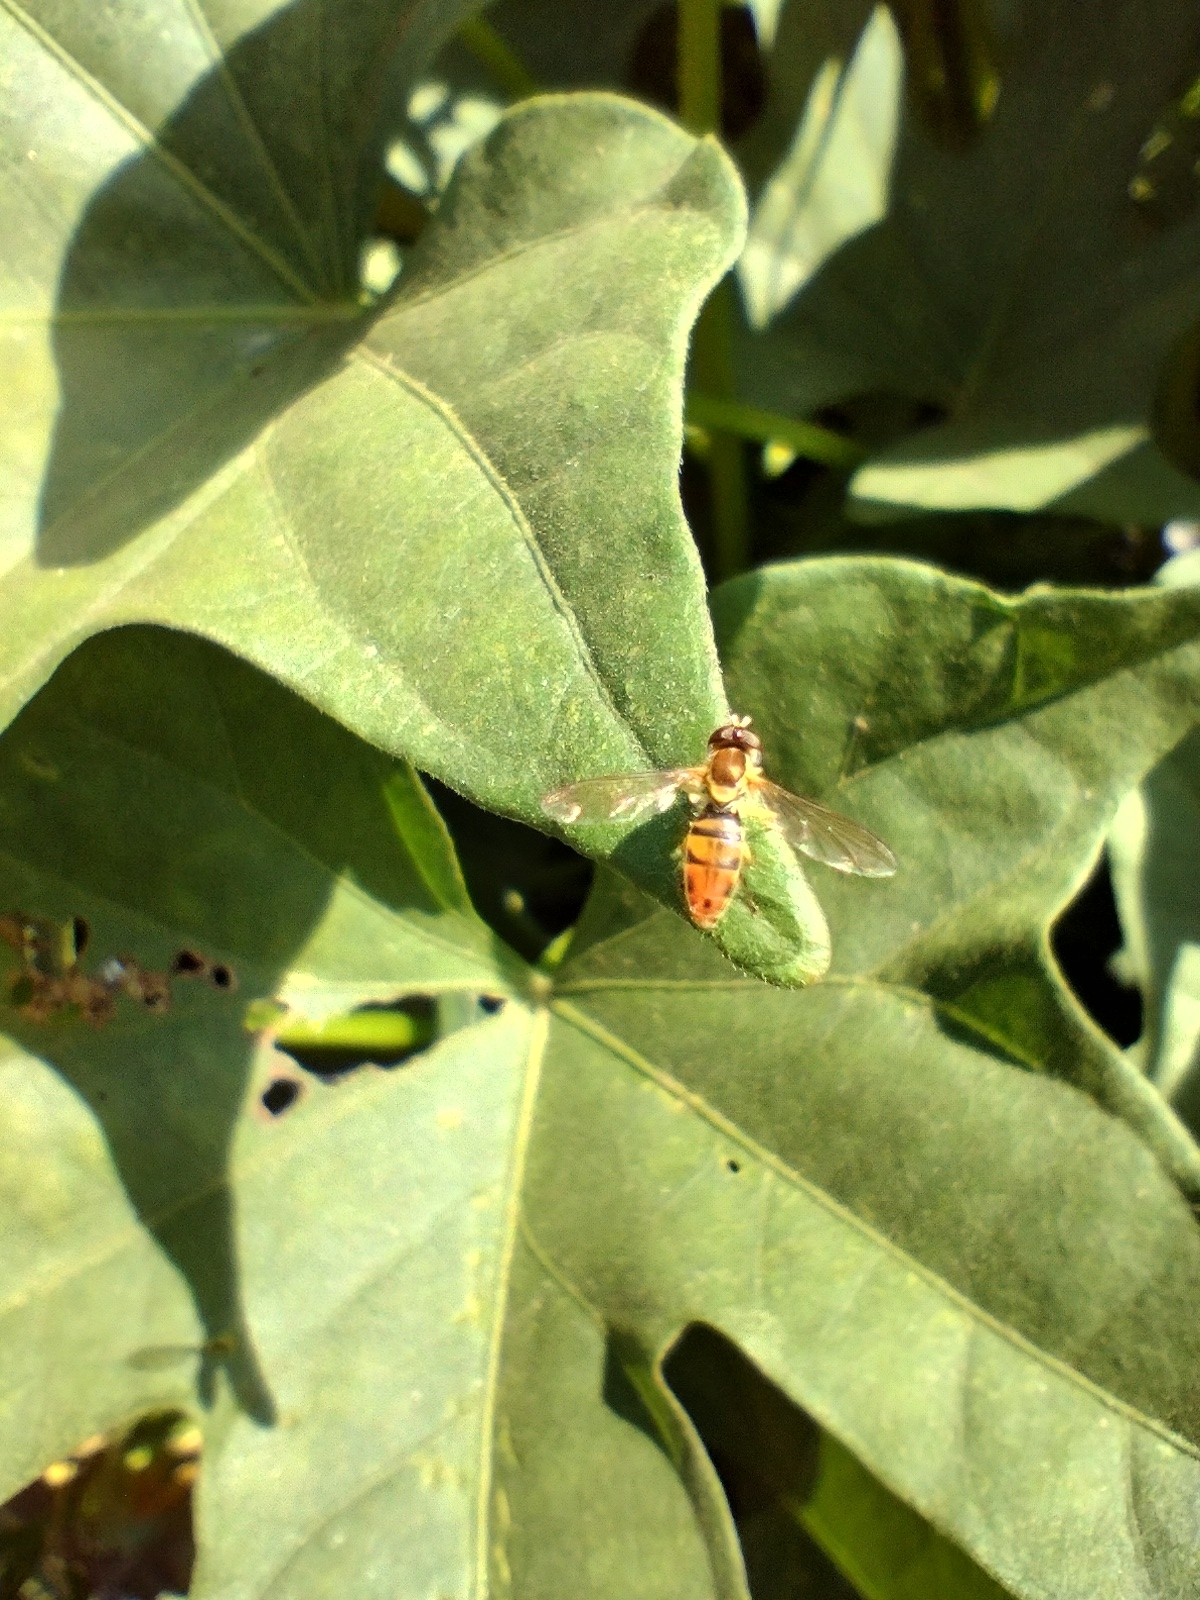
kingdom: Animalia
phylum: Arthropoda
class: Insecta
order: Diptera
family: Syrphidae
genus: Toxomerus
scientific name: Toxomerus marginatus
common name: Syrphid fly
